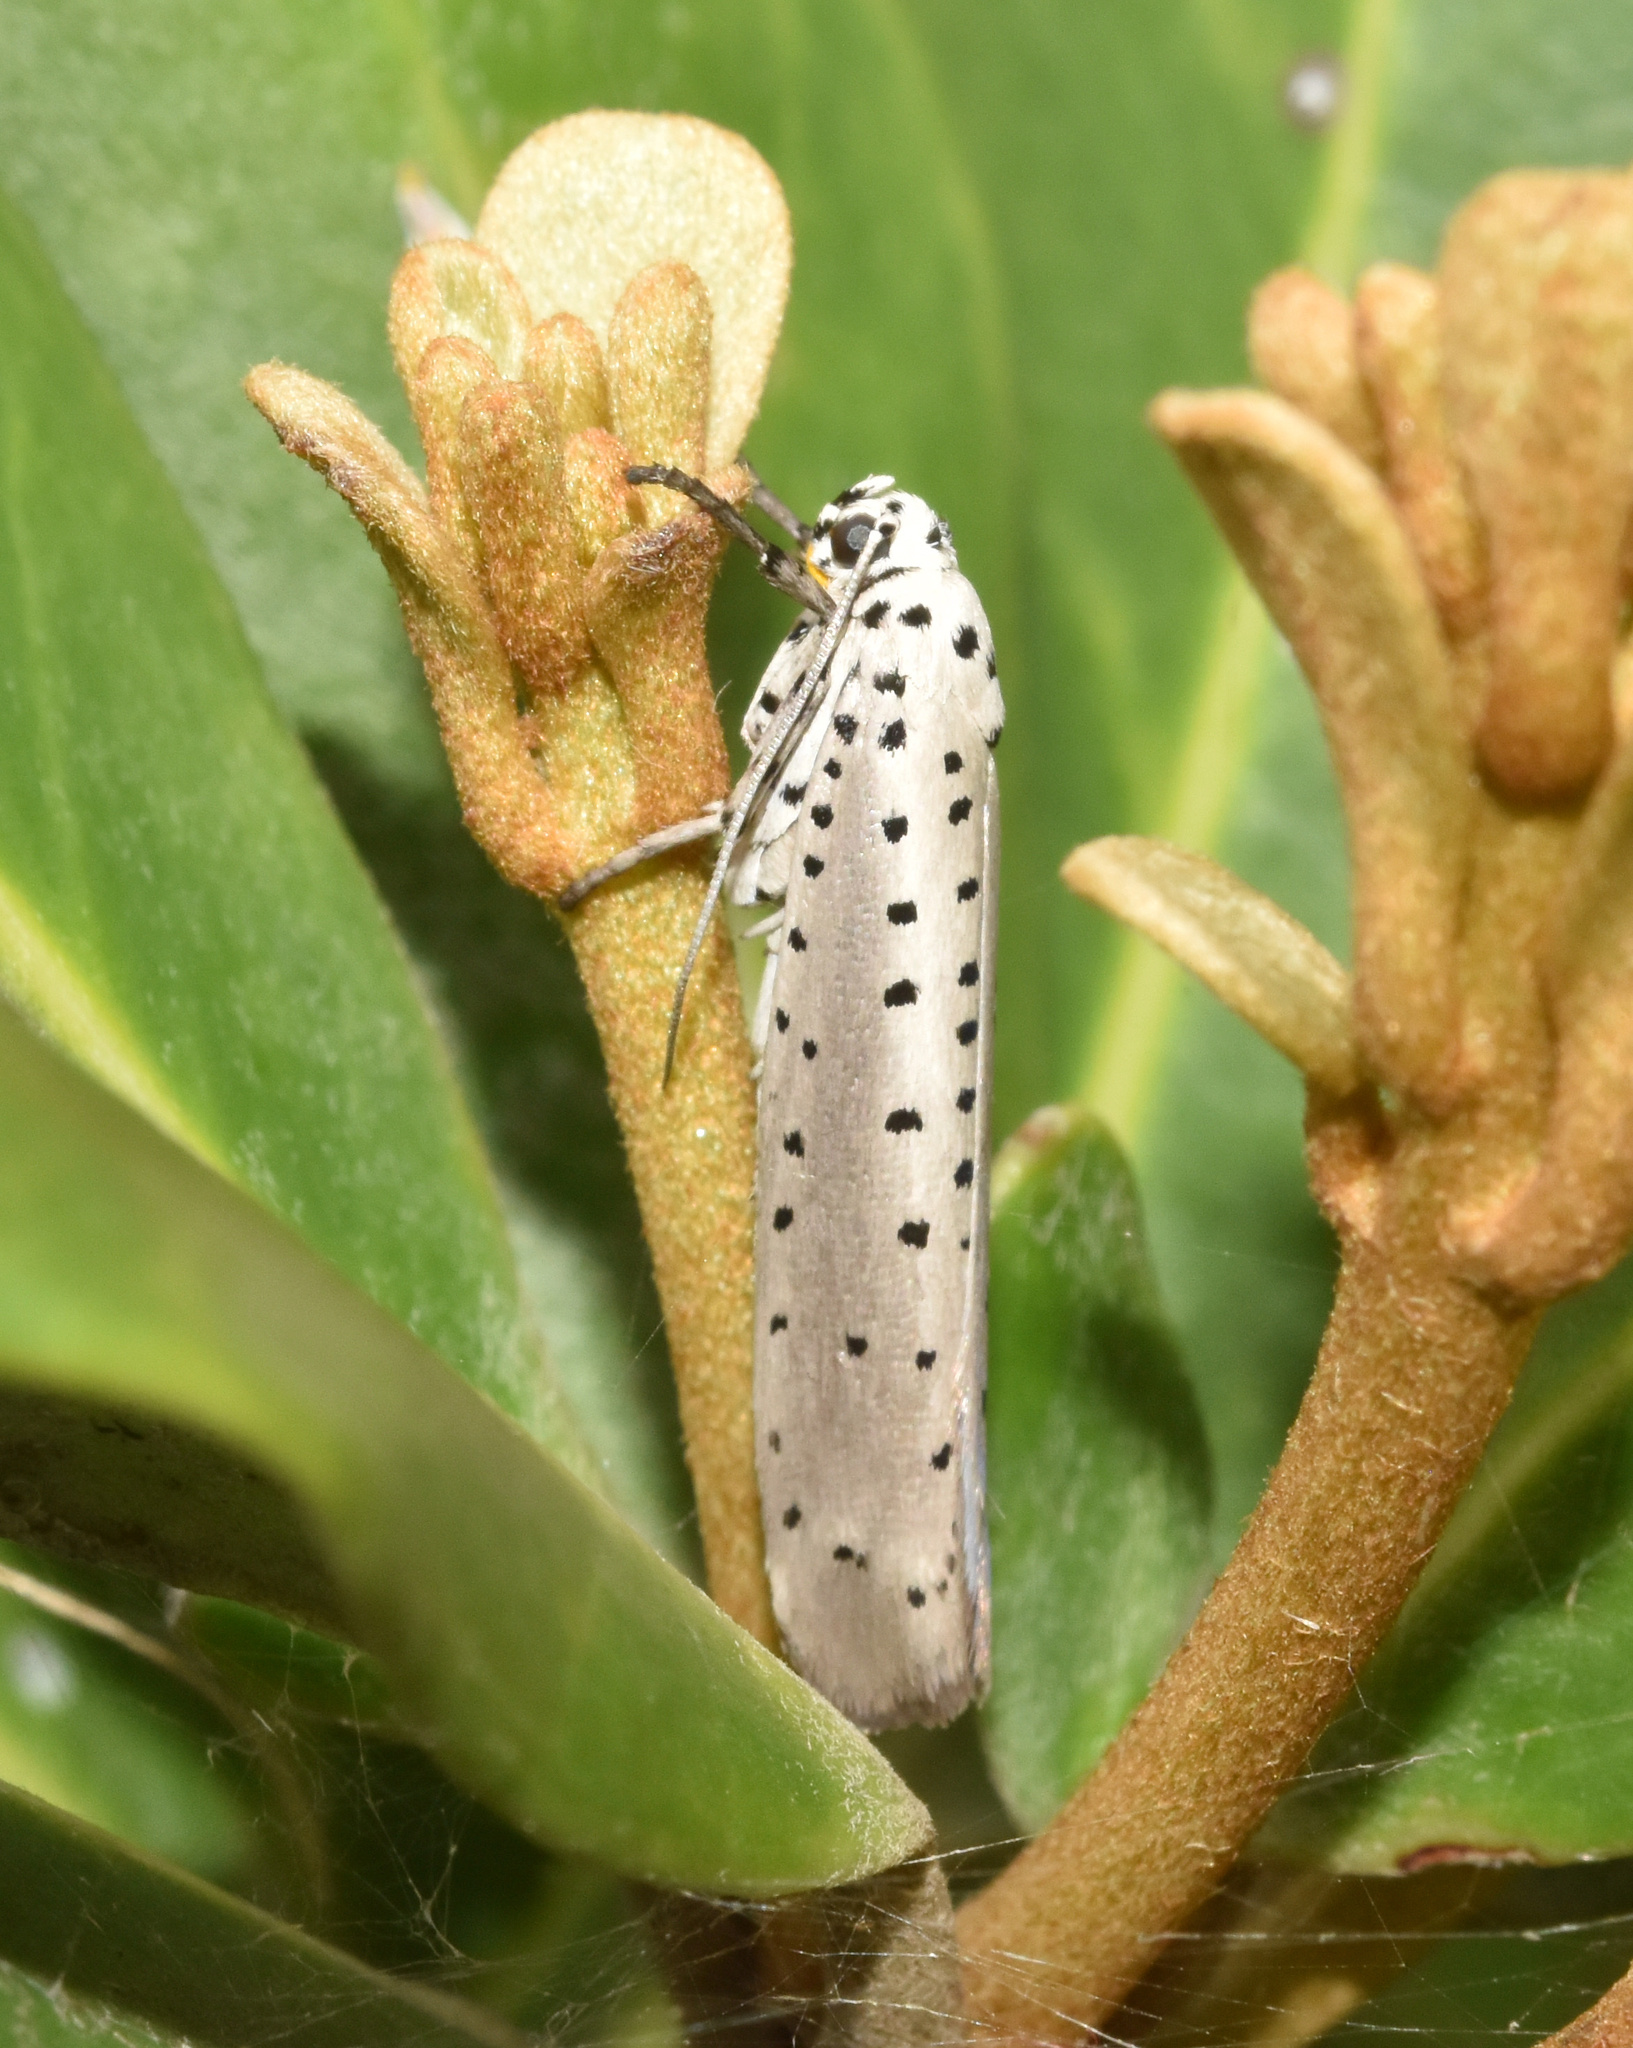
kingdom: Animalia
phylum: Arthropoda
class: Insecta
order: Lepidoptera
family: Yponomeutidae
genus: Yponomeuta
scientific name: Yponomeuta fumigata
